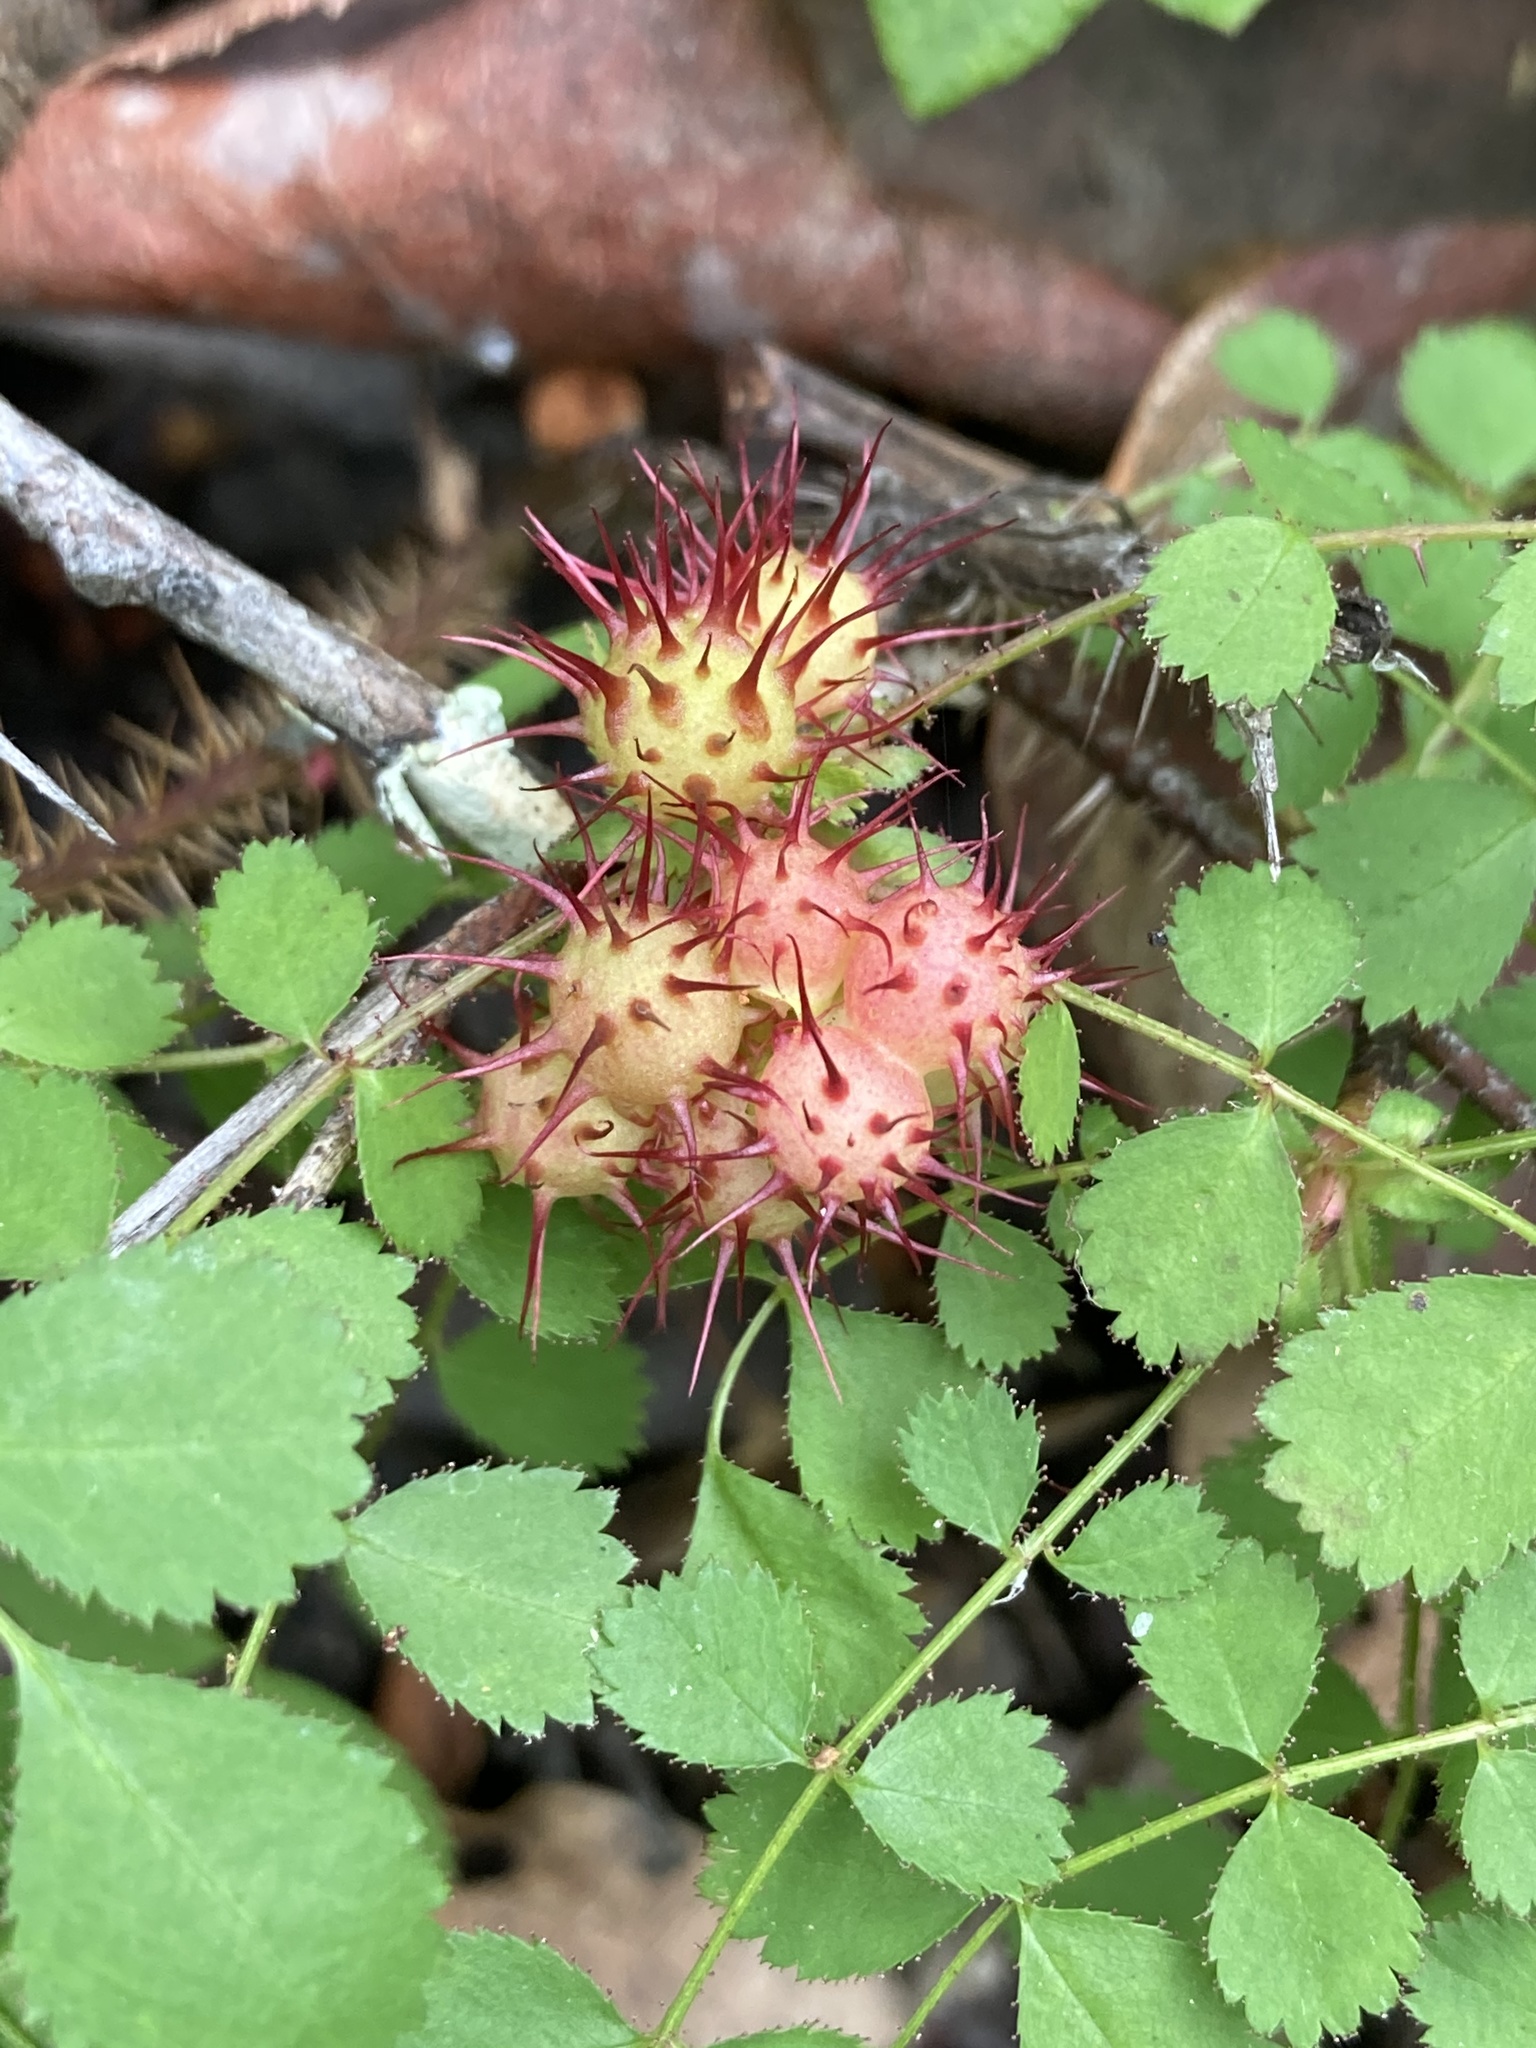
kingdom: Animalia
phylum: Arthropoda
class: Insecta
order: Hymenoptera
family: Cynipidae
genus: Diplolepis
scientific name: Diplolepis polita
